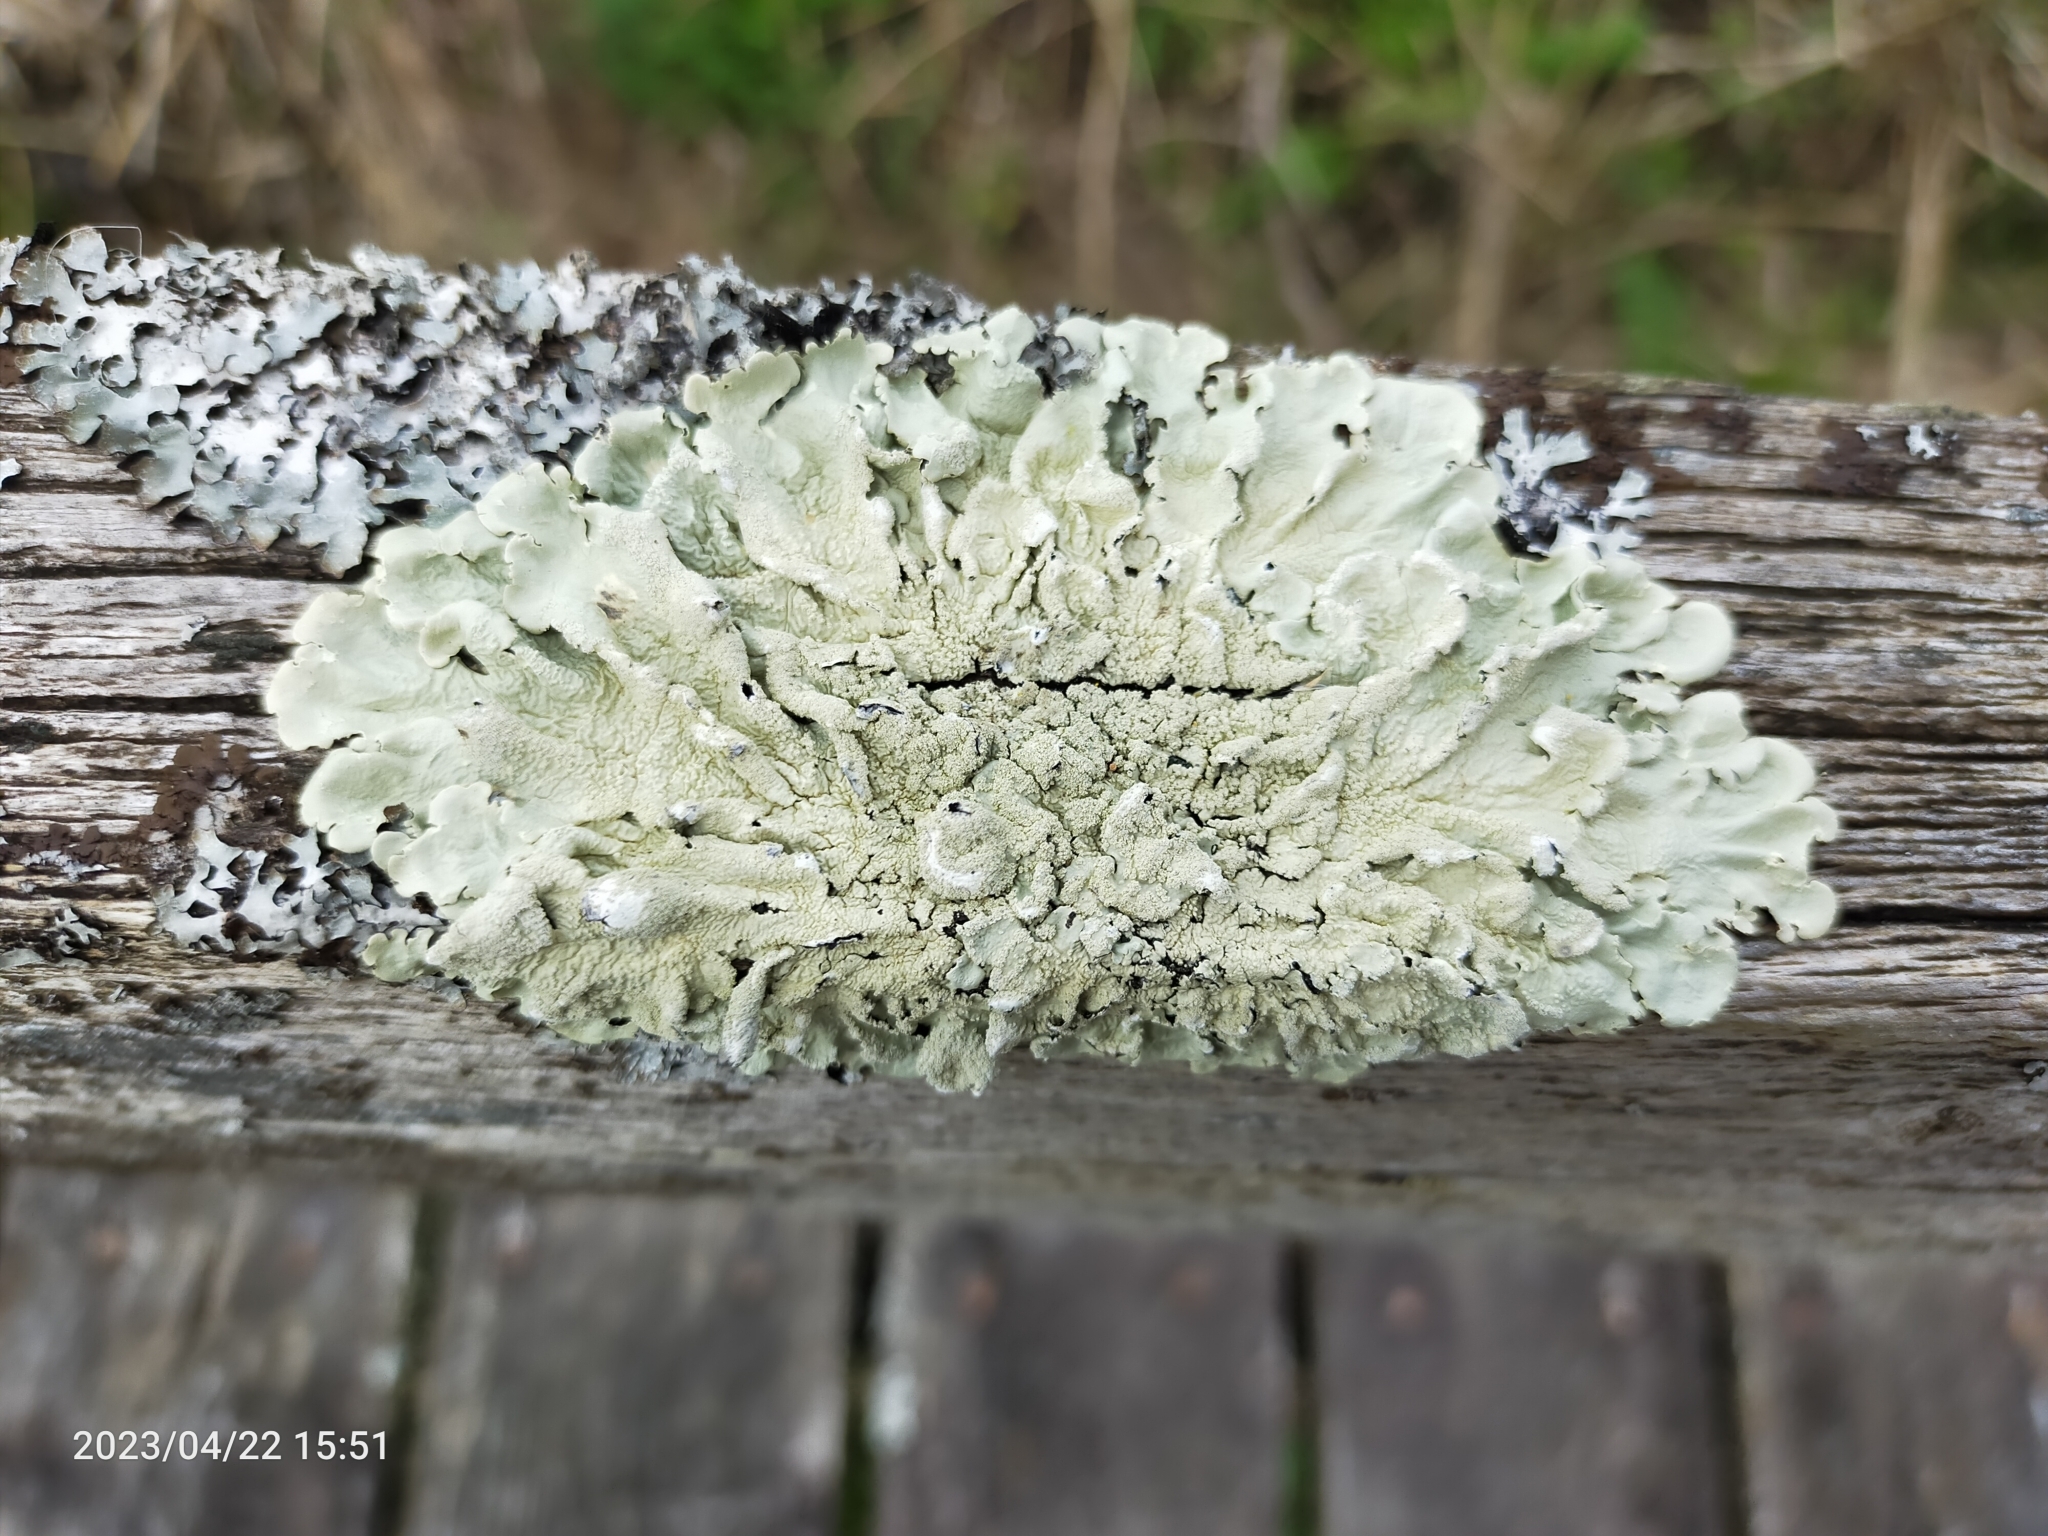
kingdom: Fungi
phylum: Ascomycota
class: Lecanoromycetes
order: Lecanorales
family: Parmeliaceae
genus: Flavoparmelia
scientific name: Flavoparmelia caperata
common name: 40-mile per hour lichen
